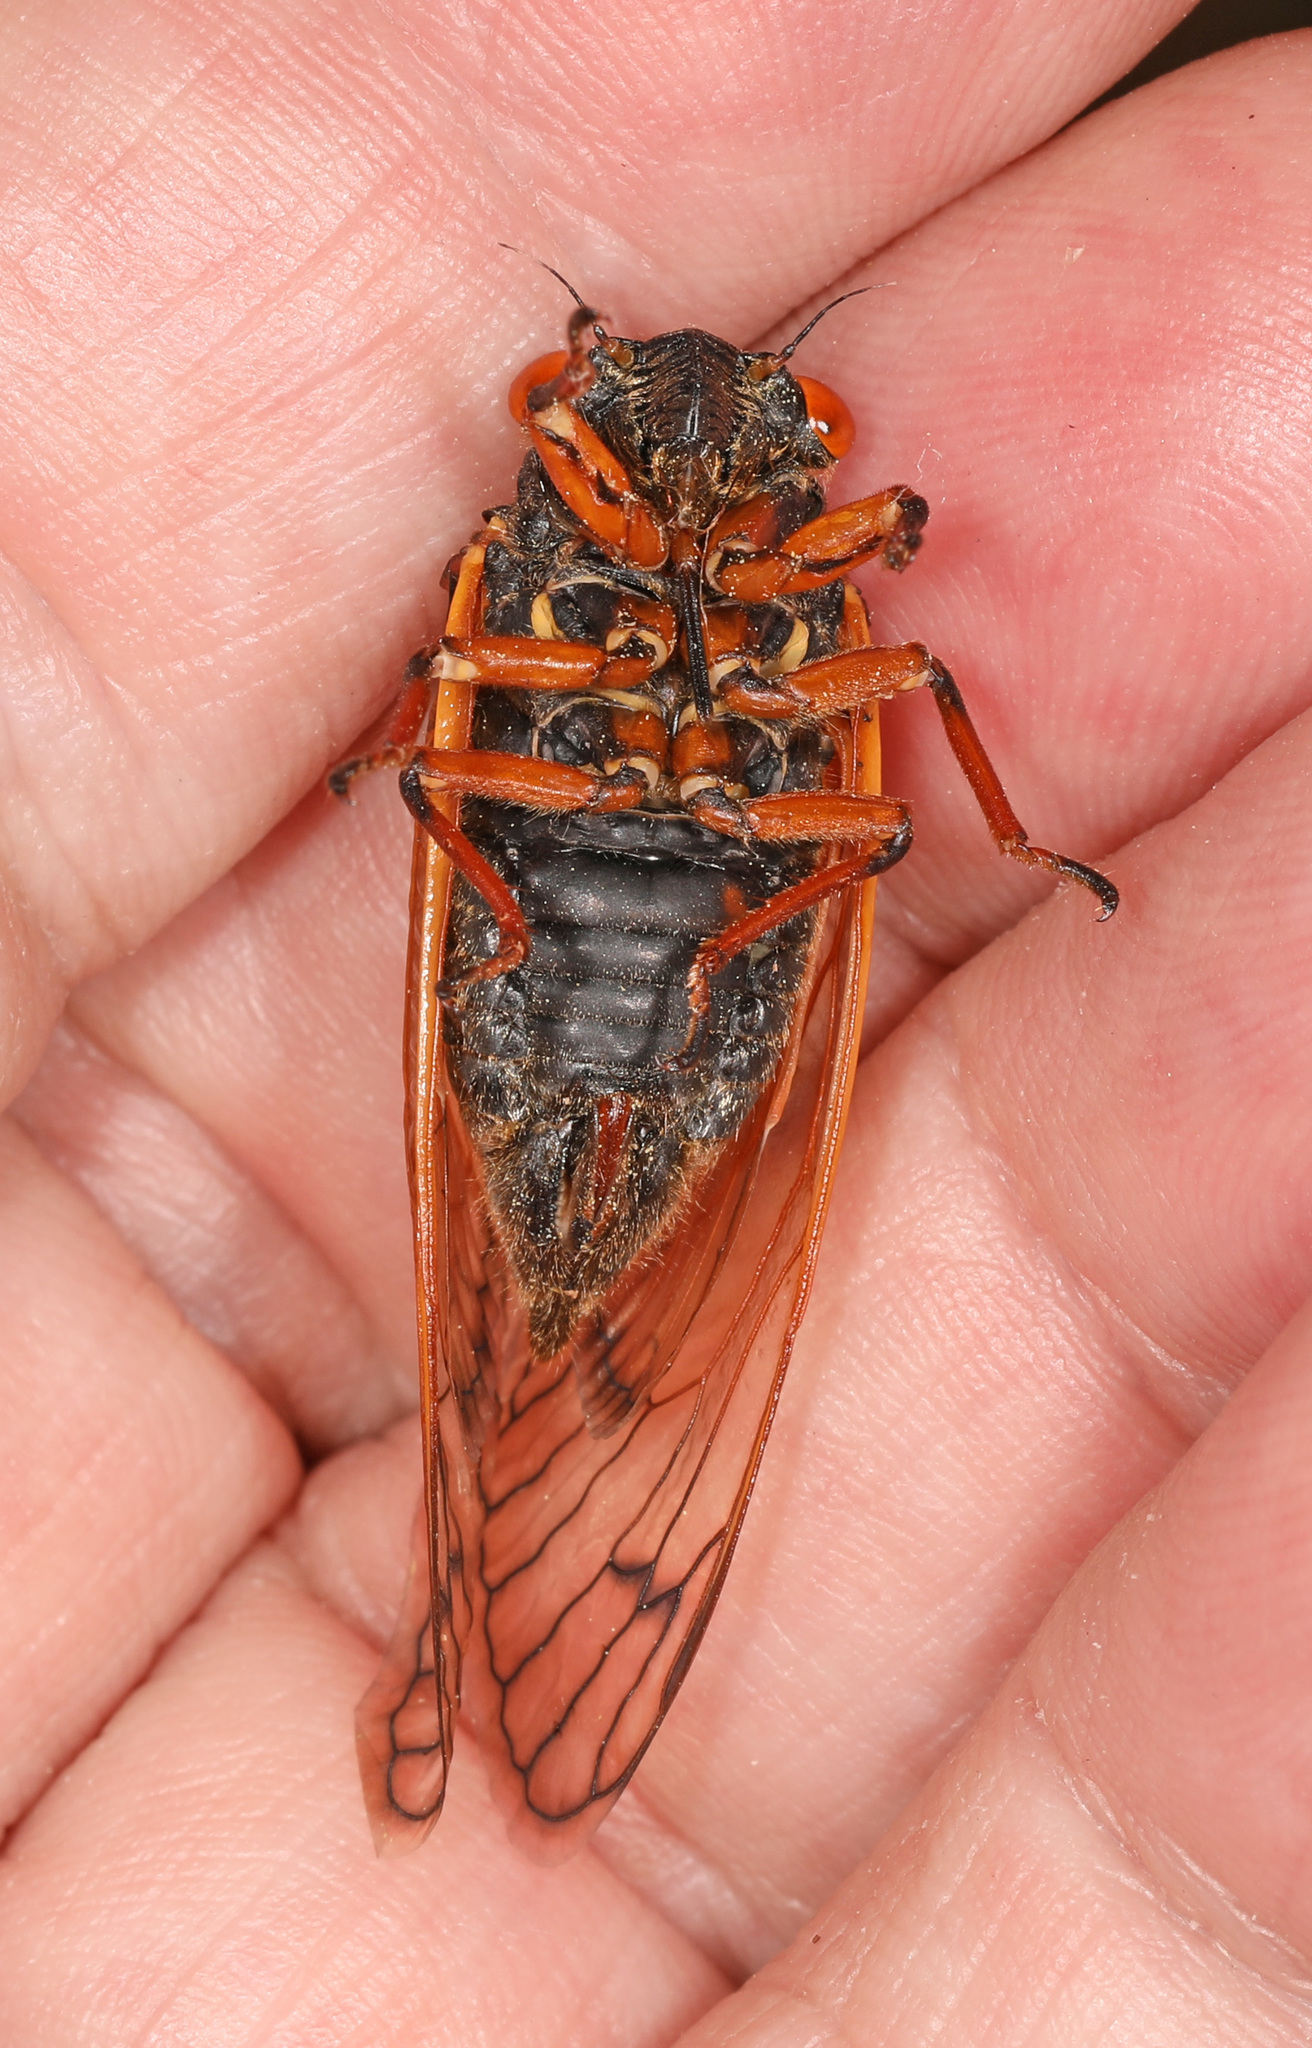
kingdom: Animalia
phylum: Arthropoda
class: Insecta
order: Hemiptera
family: Cicadidae
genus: Magicicada
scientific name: Magicicada cassini
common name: Cassin's 17-year cicada
